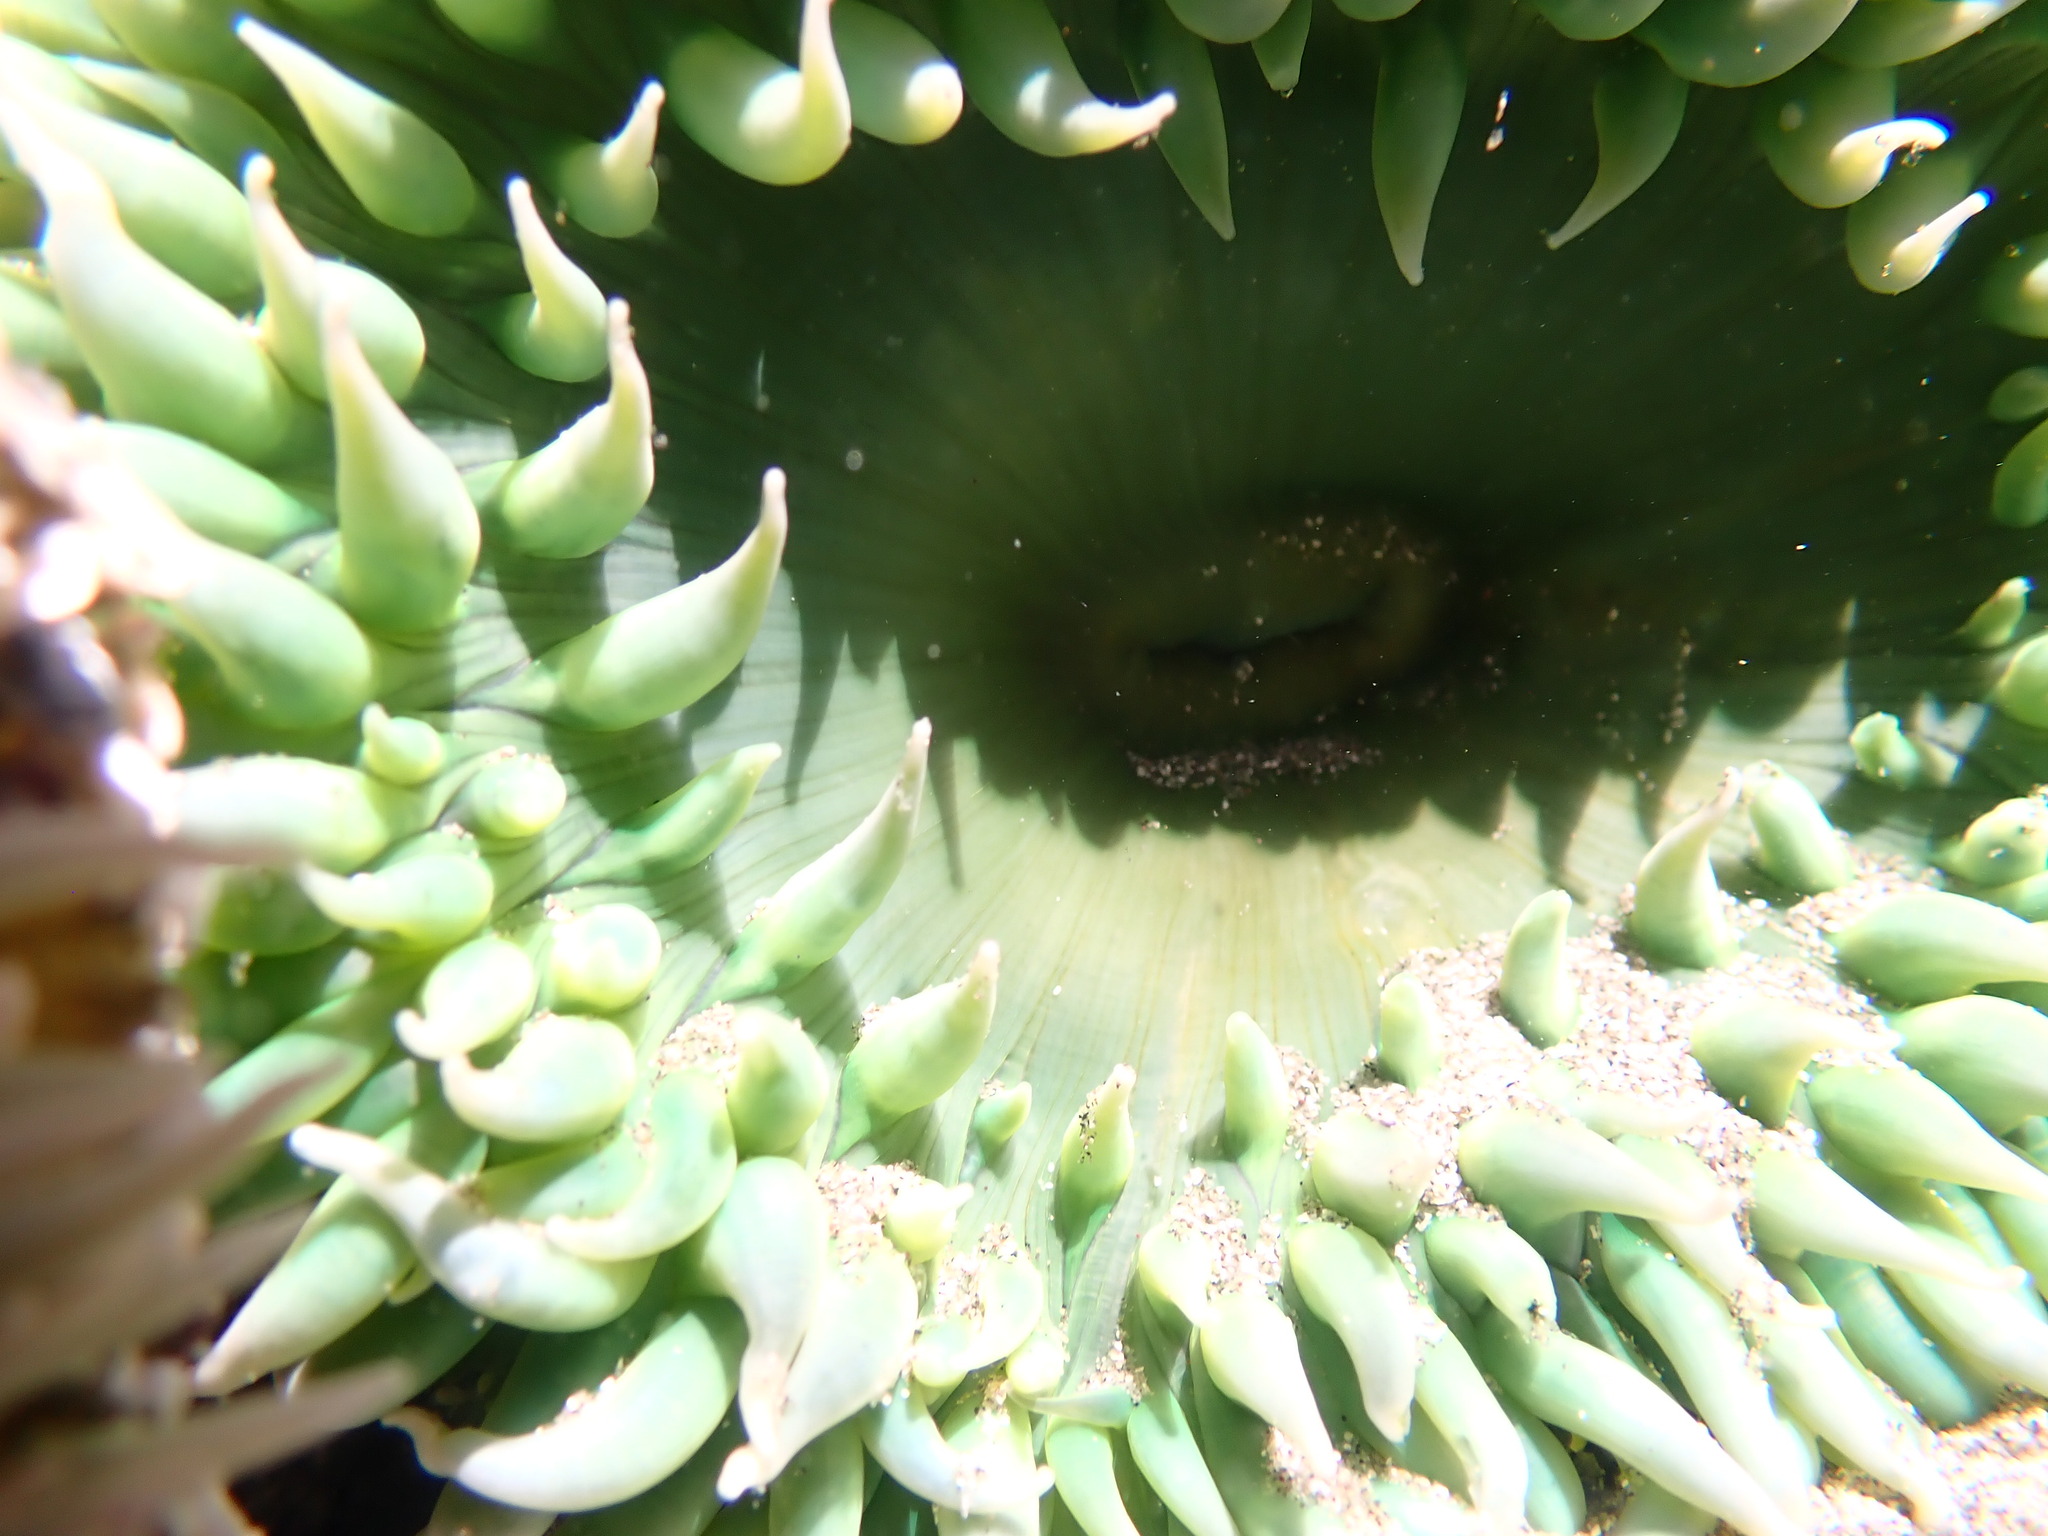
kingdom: Animalia
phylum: Cnidaria
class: Anthozoa
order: Actiniaria
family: Actiniidae
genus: Anthopleura
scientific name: Anthopleura xanthogrammica
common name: Giant green anemone
